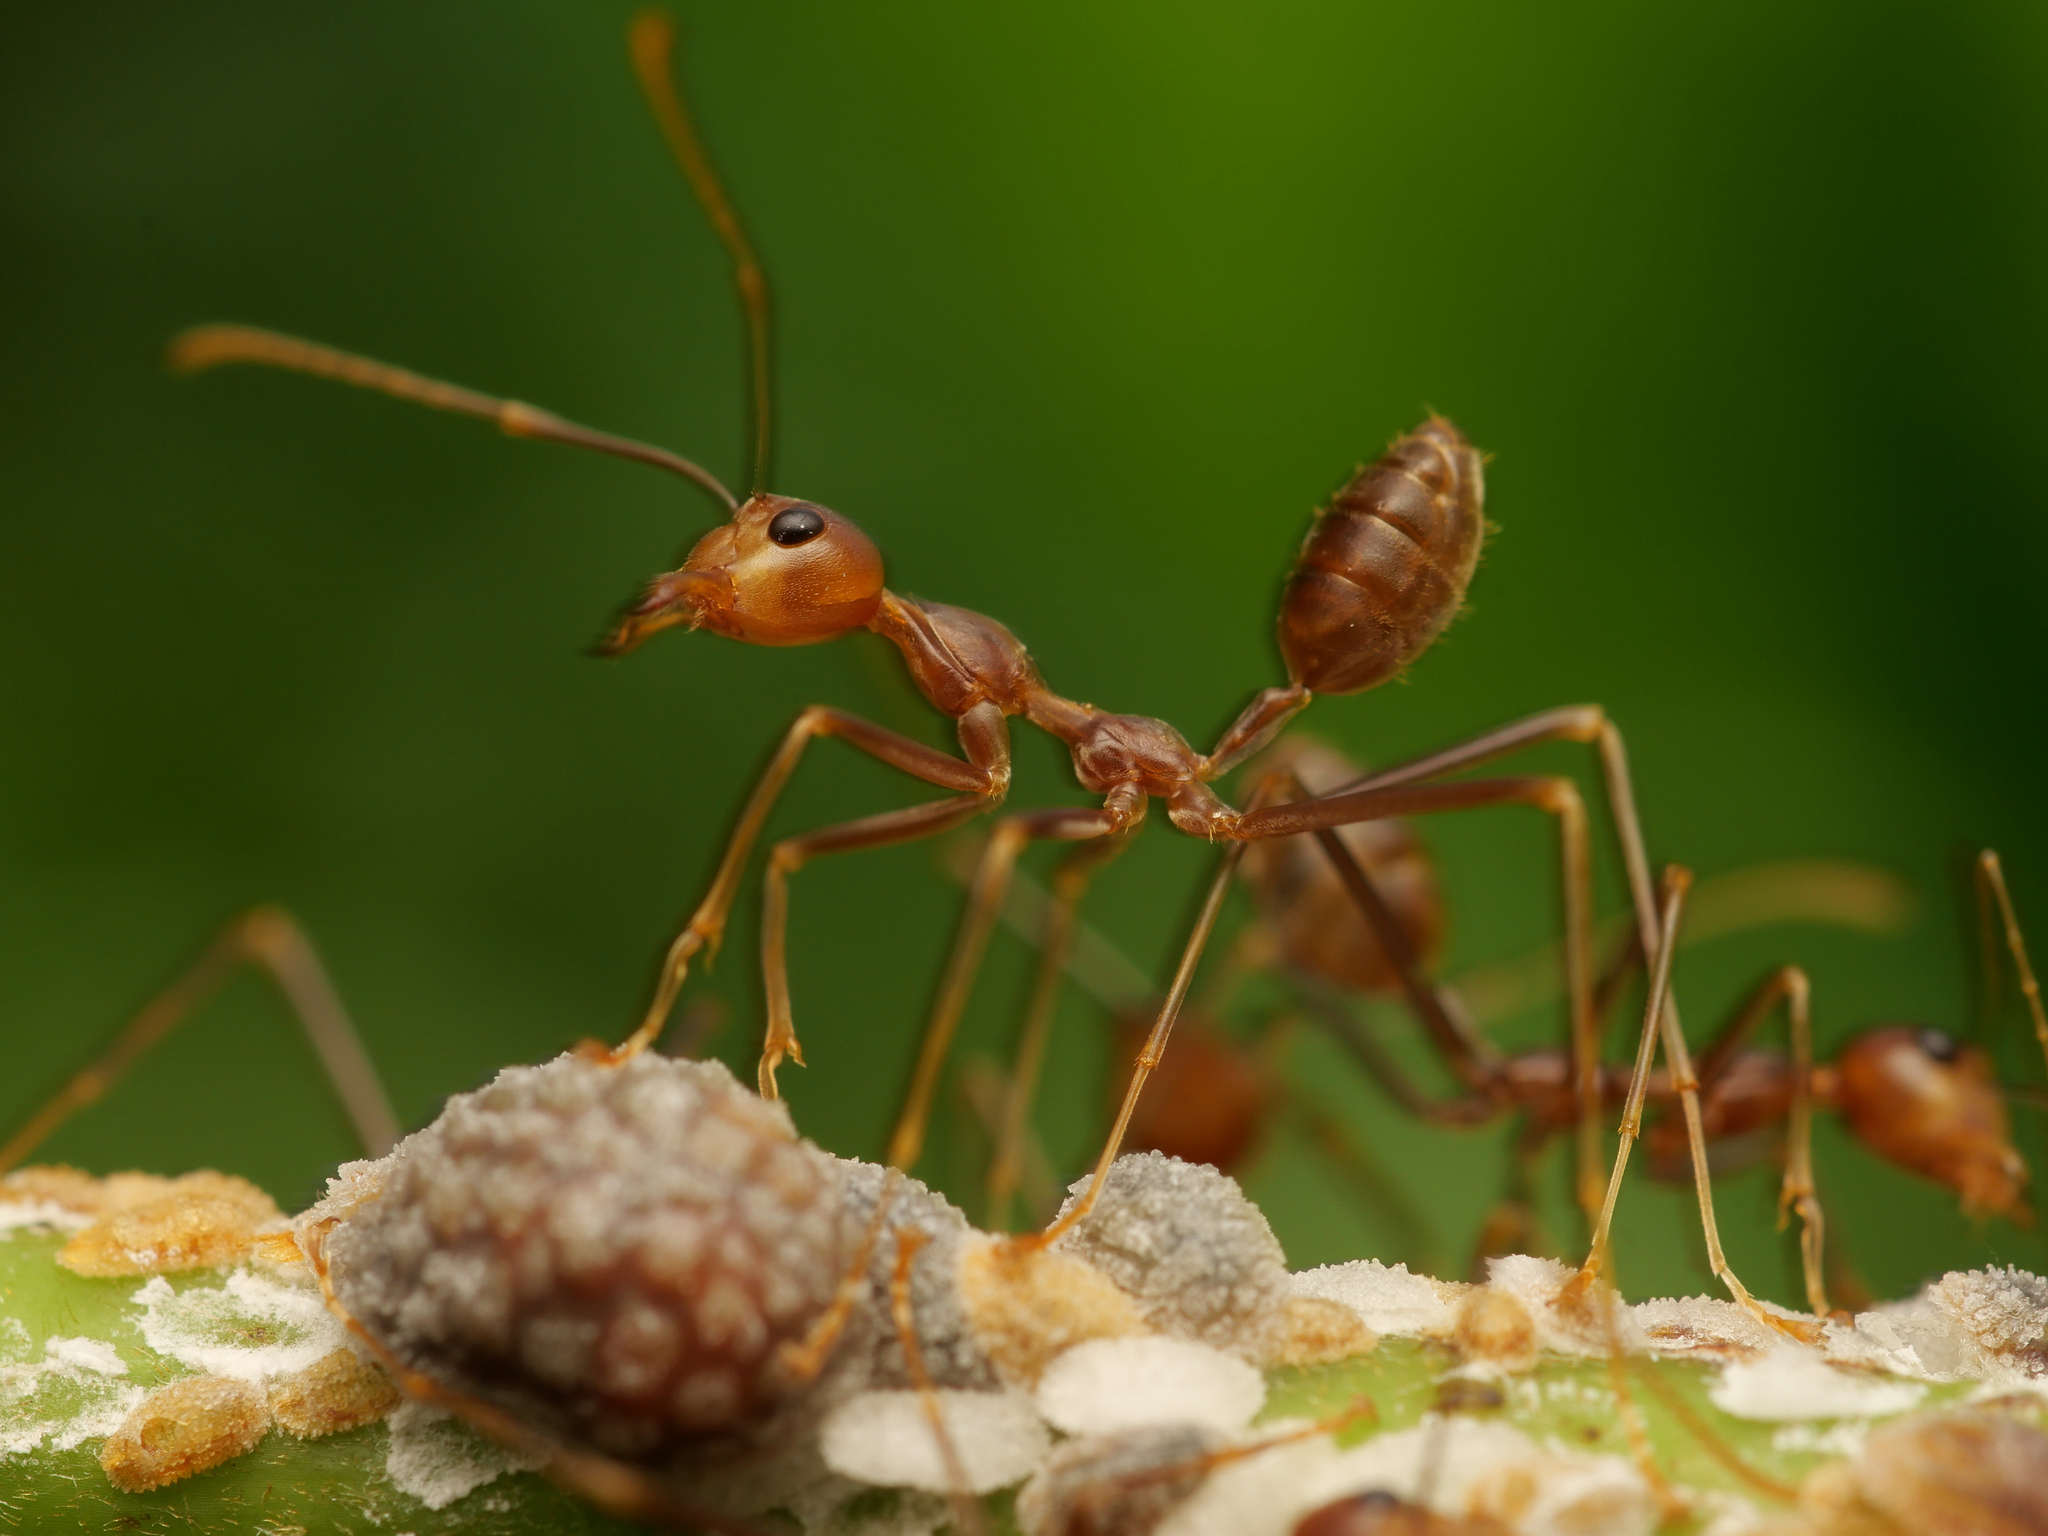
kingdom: Animalia
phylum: Arthropoda
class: Insecta
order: Hymenoptera
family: Formicidae
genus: Oecophylla
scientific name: Oecophylla smaragdina
